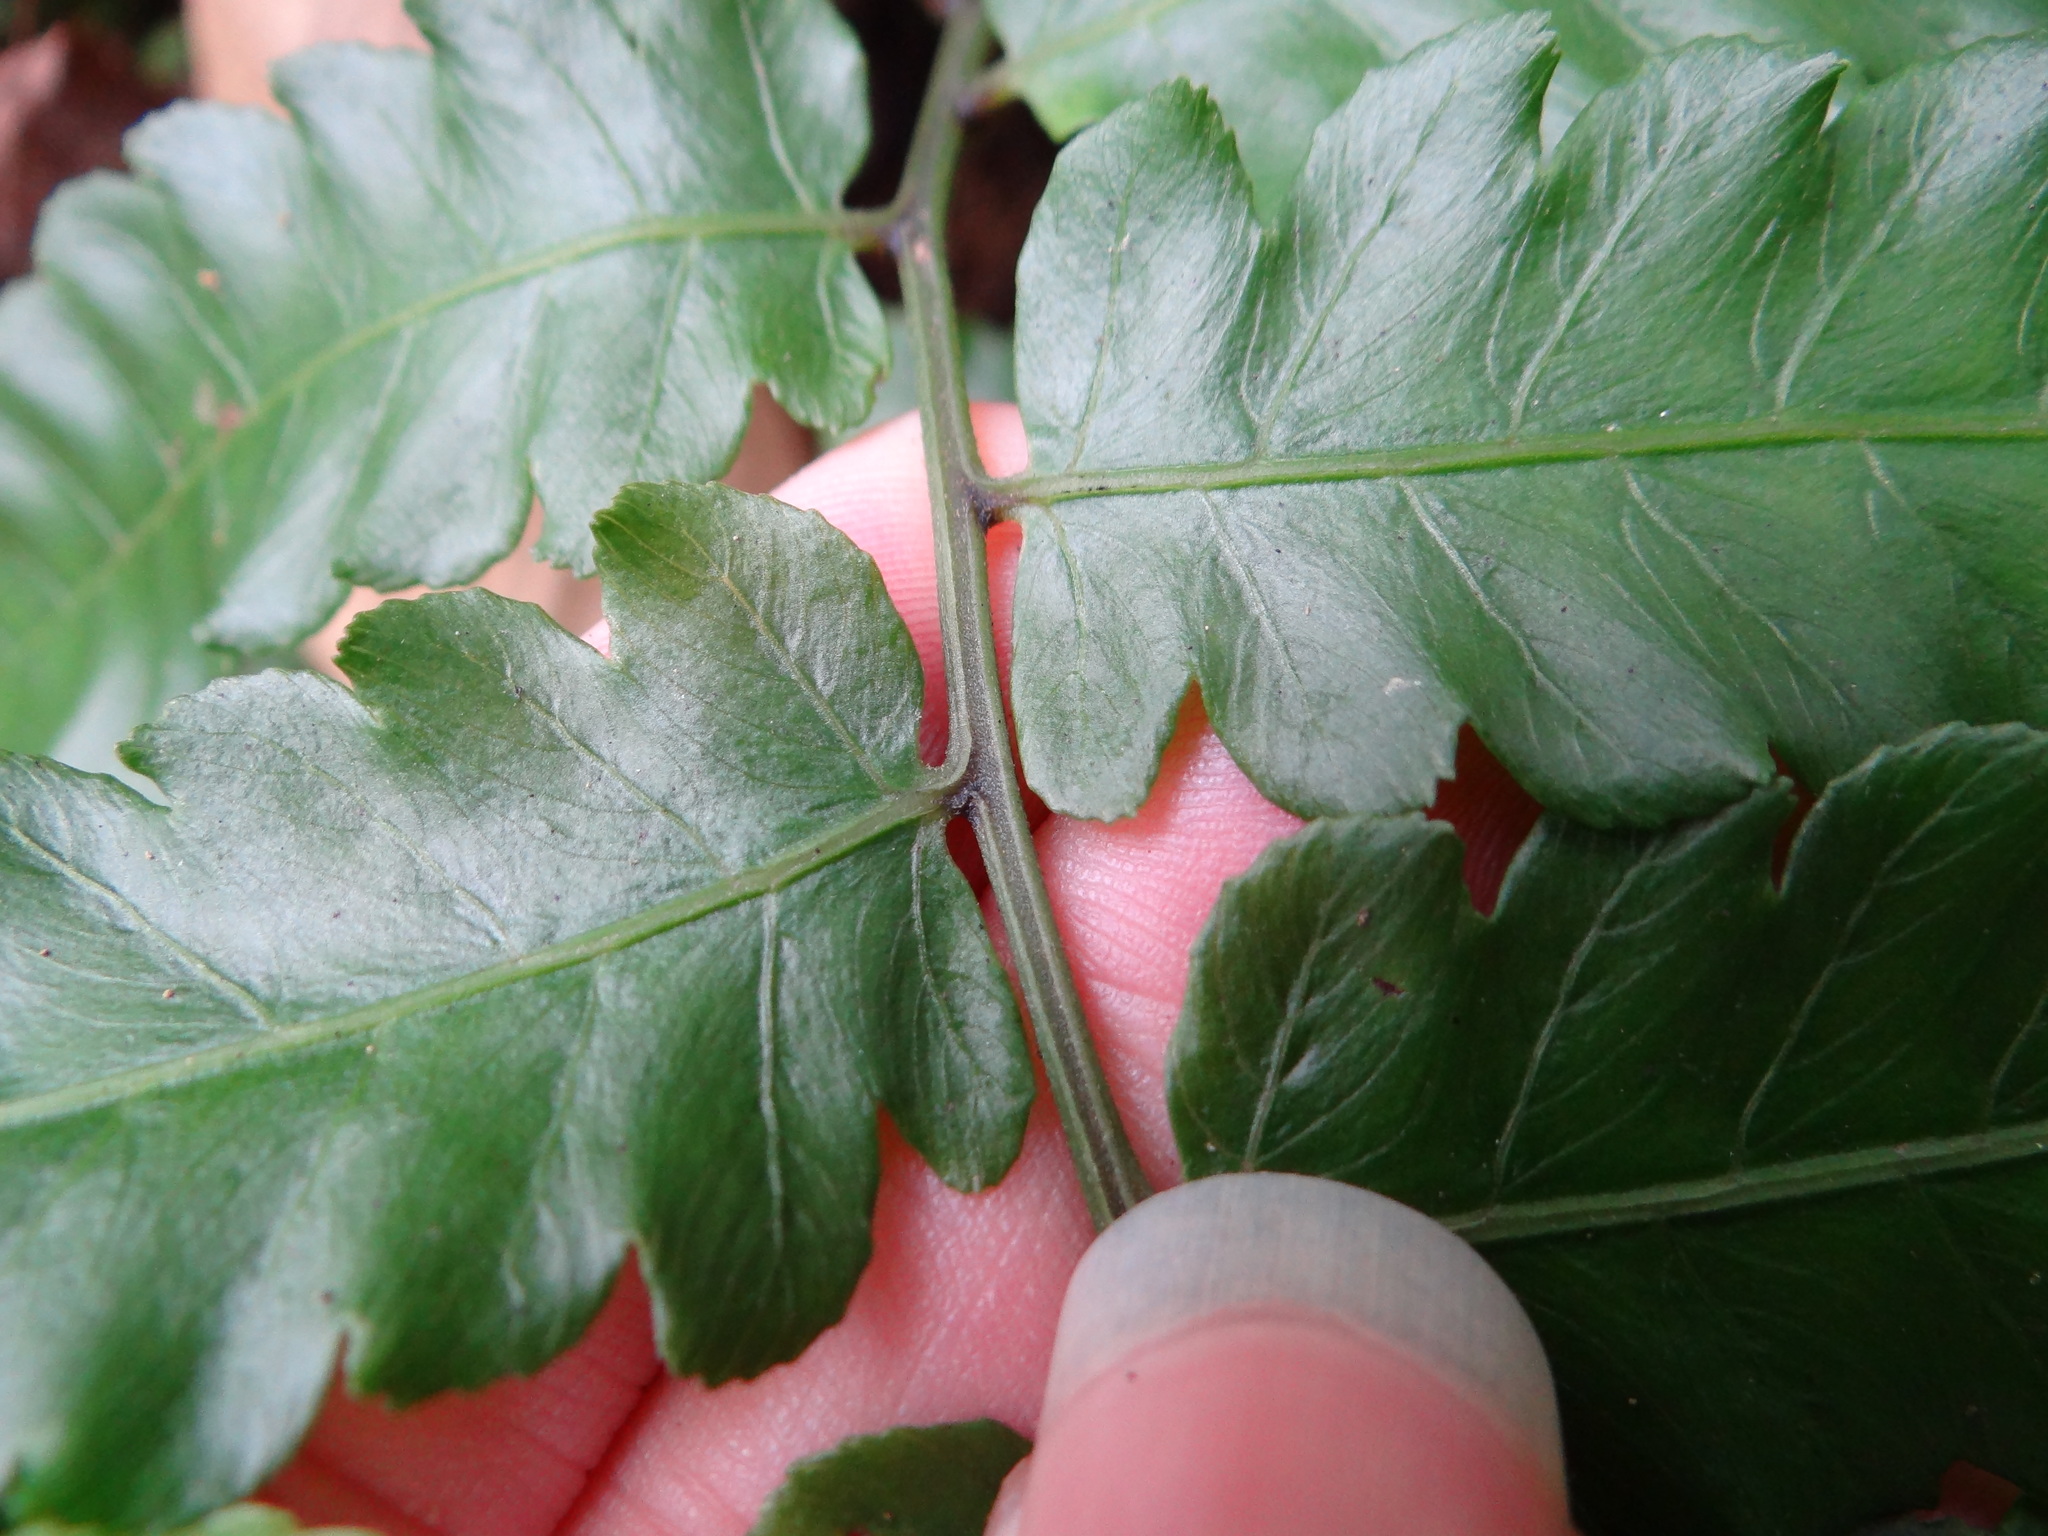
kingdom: Plantae
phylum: Tracheophyta
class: Polypodiopsida
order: Polypodiales
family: Athyriaceae
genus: Diplazium
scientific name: Diplazium dilatatum
